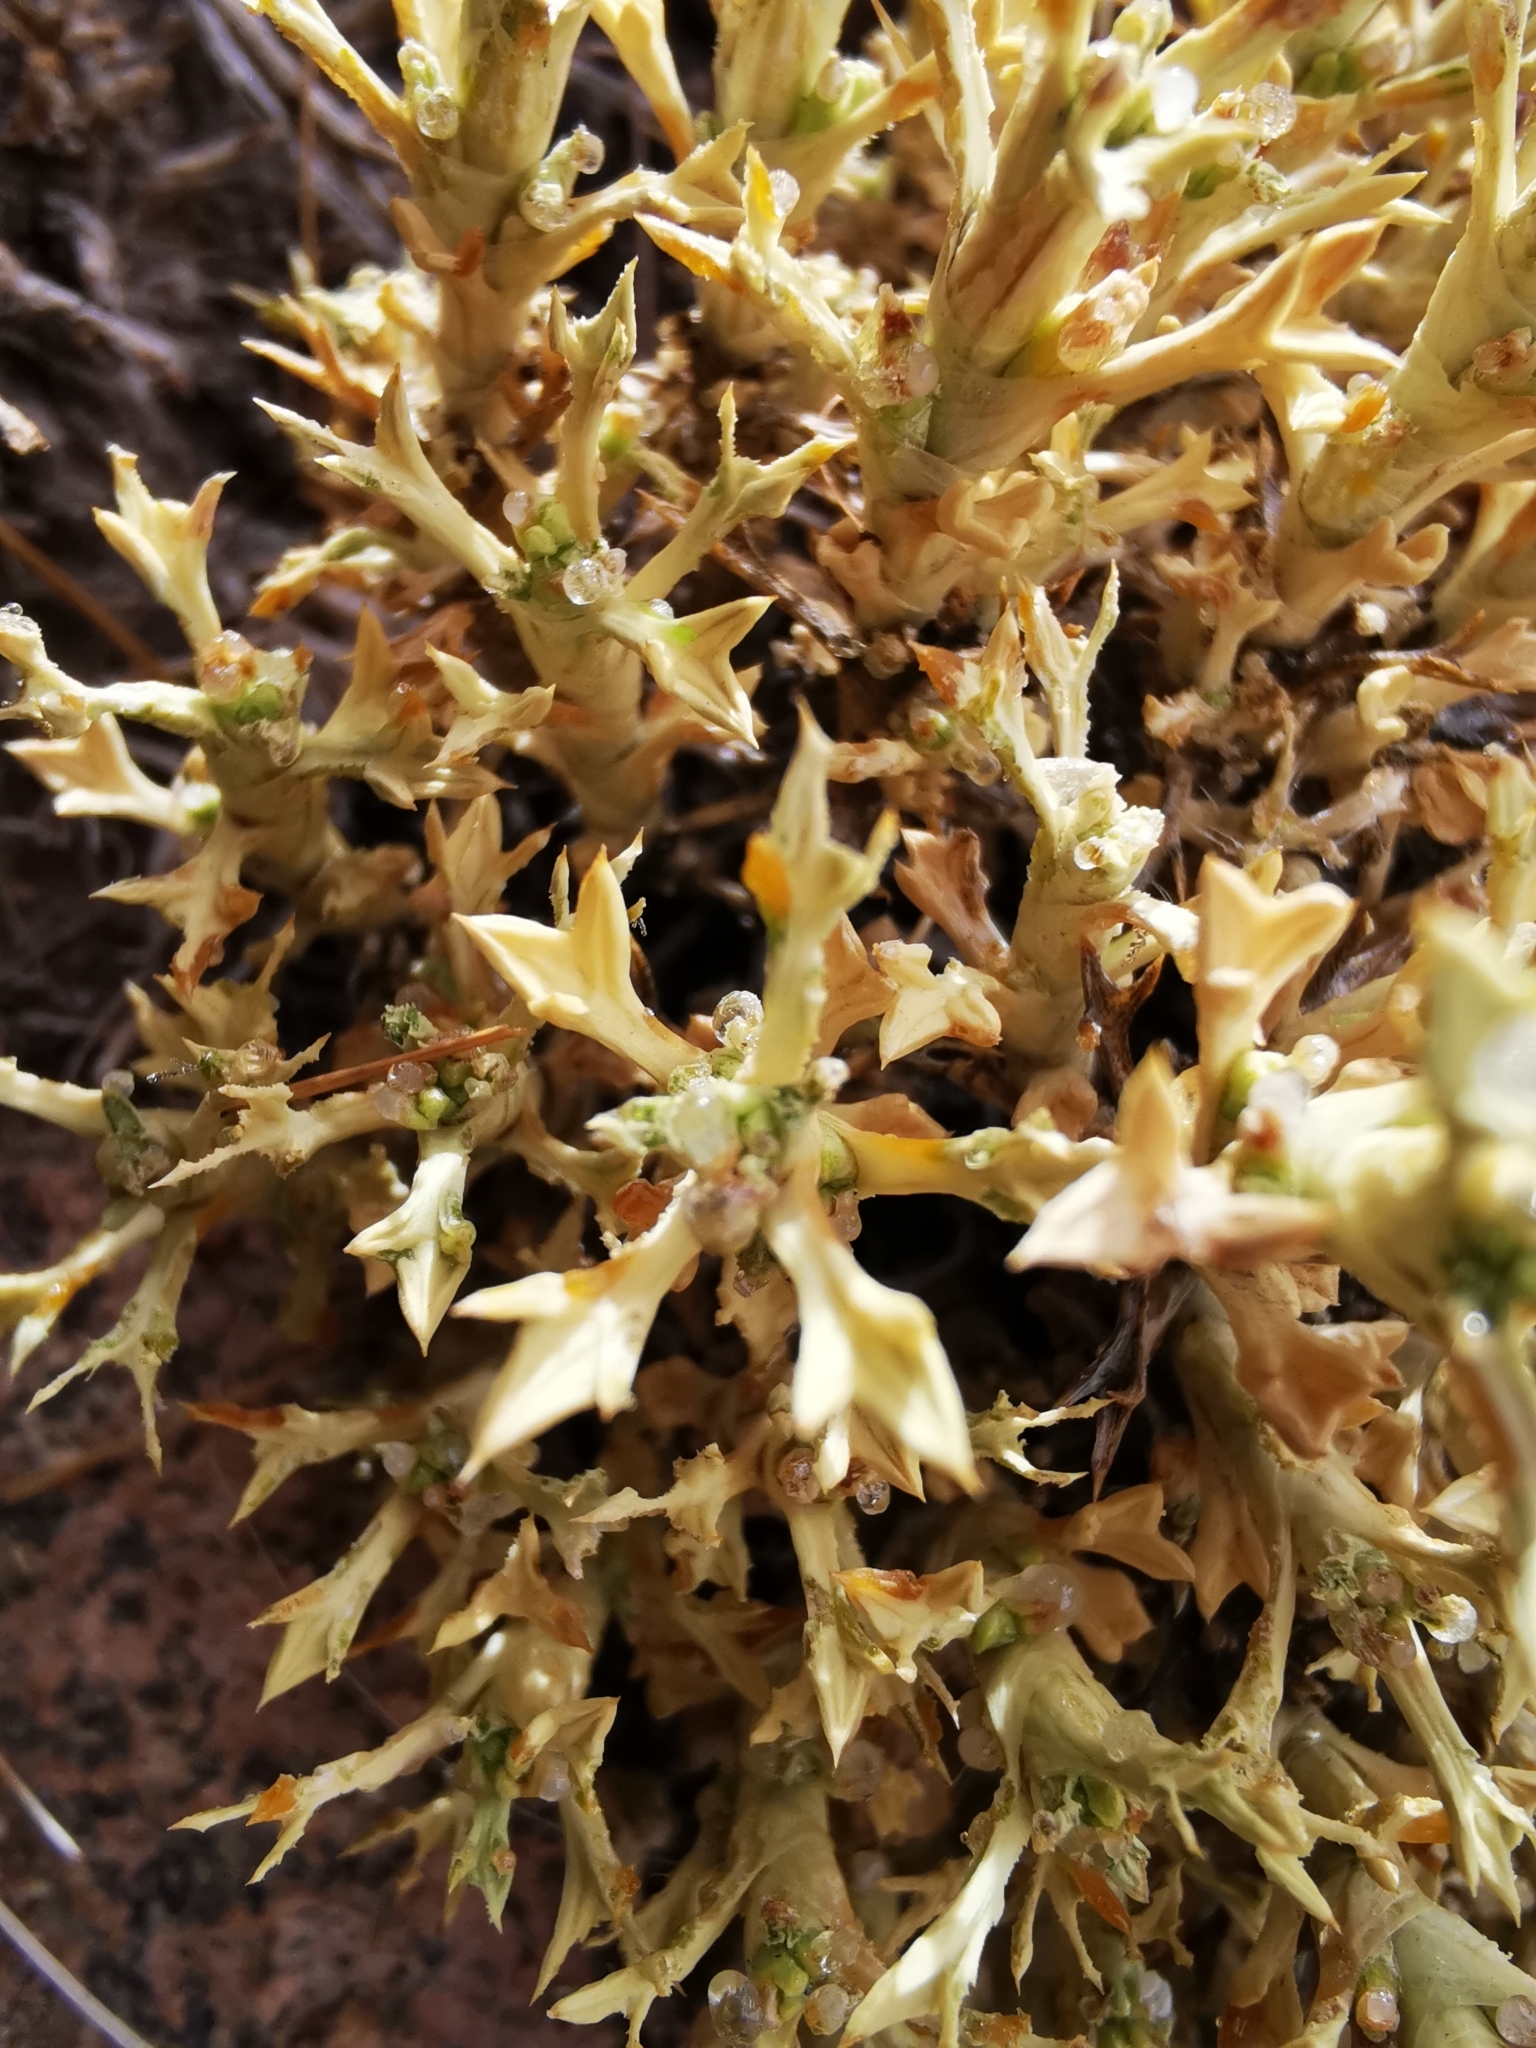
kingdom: Plantae
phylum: Tracheophyta
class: Magnoliopsida
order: Apiales
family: Apiaceae
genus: Azorella
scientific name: Azorella trisecta
